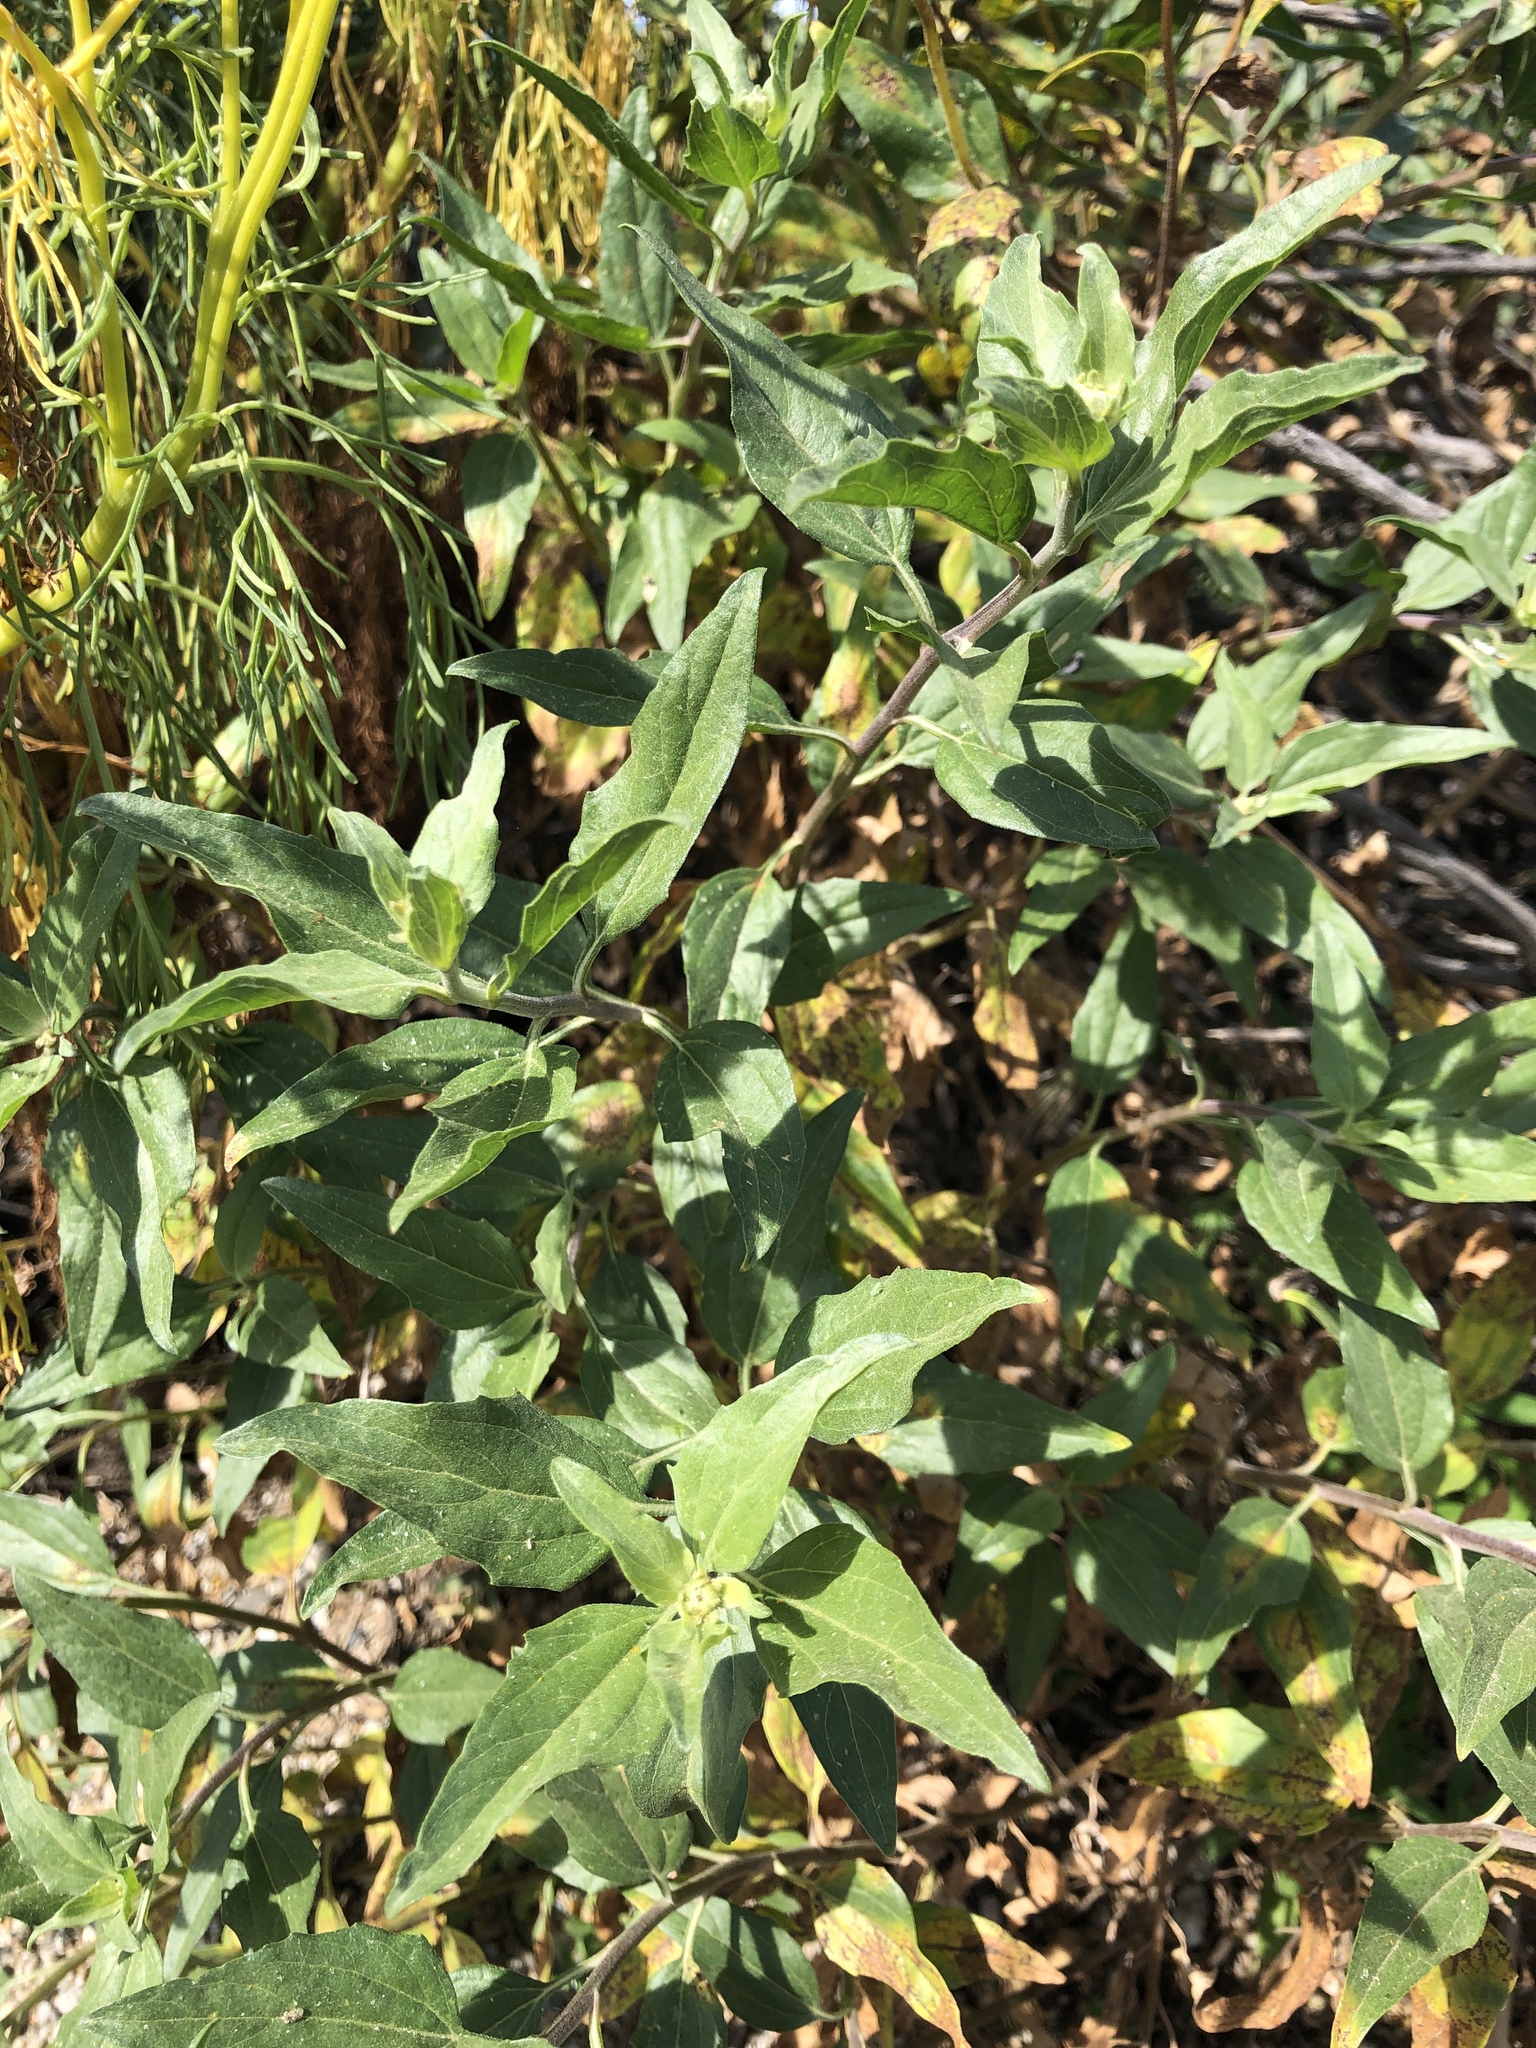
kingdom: Plantae
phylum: Tracheophyta
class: Magnoliopsida
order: Asterales
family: Asteraceae
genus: Encelia
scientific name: Encelia californica
